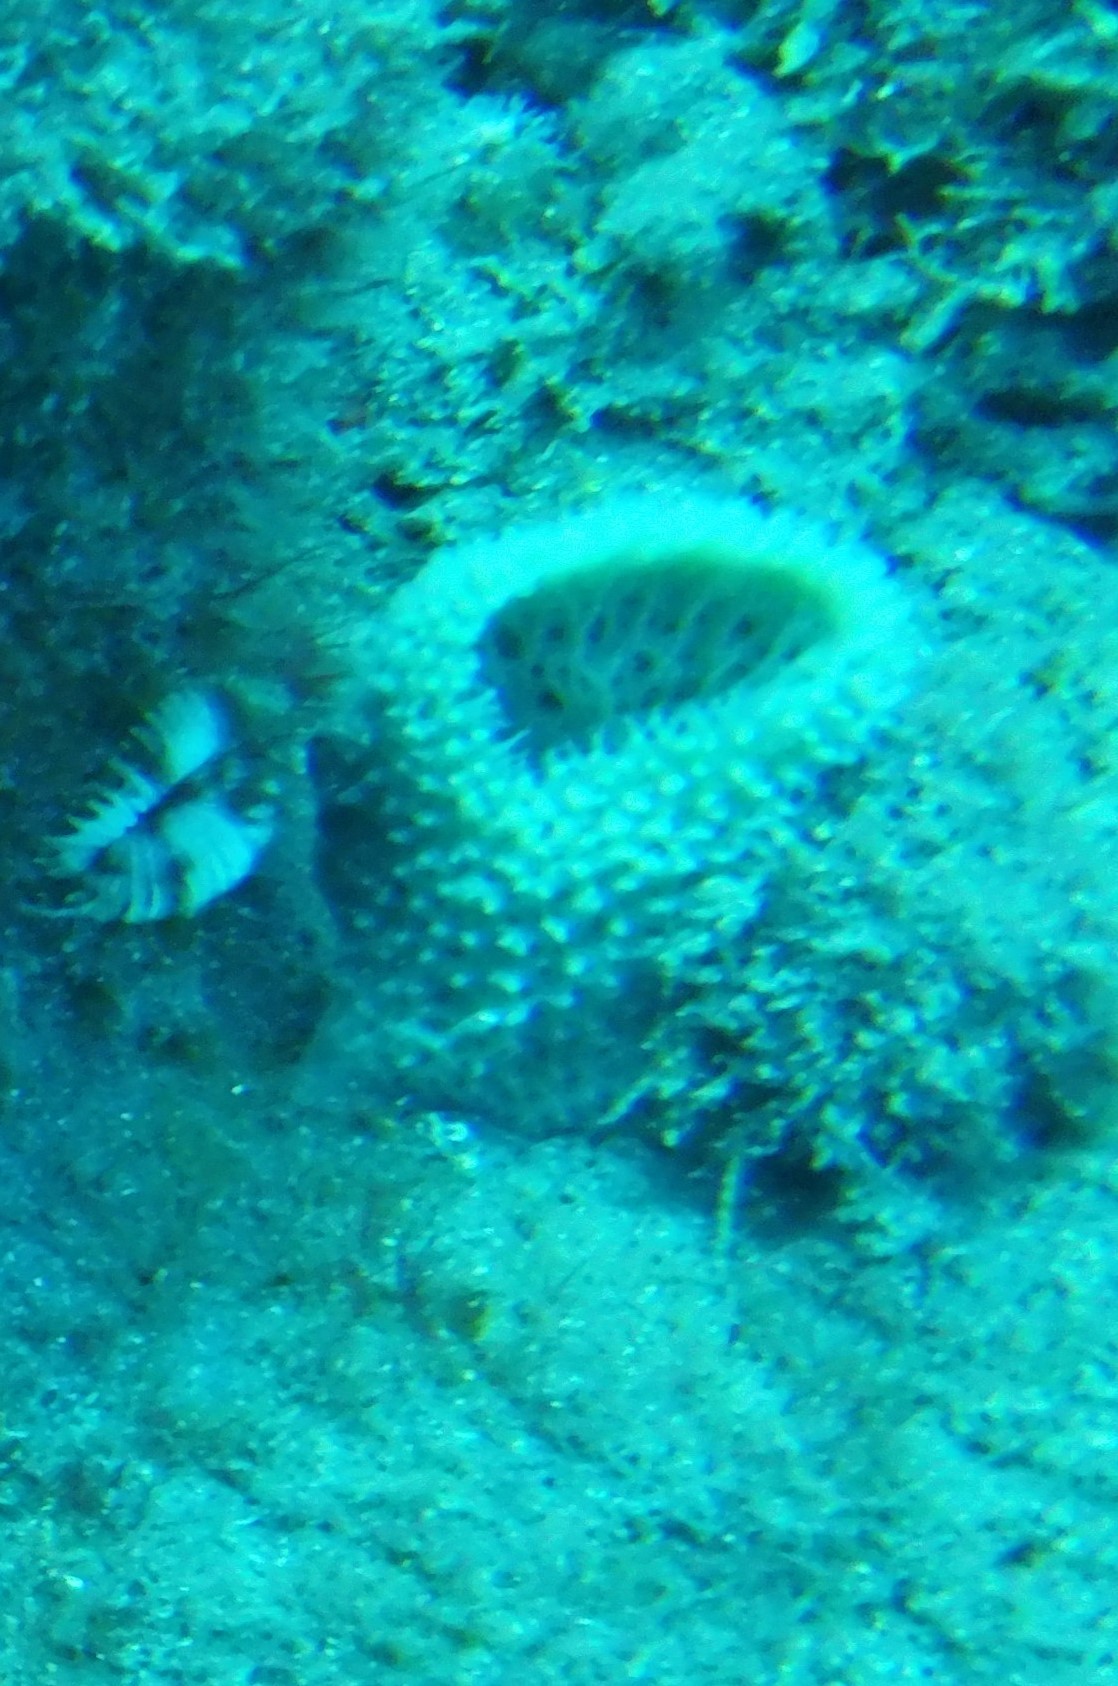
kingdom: Animalia
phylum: Porifera
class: Demospongiae
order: Haplosclerida
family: Niphatidae
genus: Niphates
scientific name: Niphates digitalis
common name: Pink vase sponge
